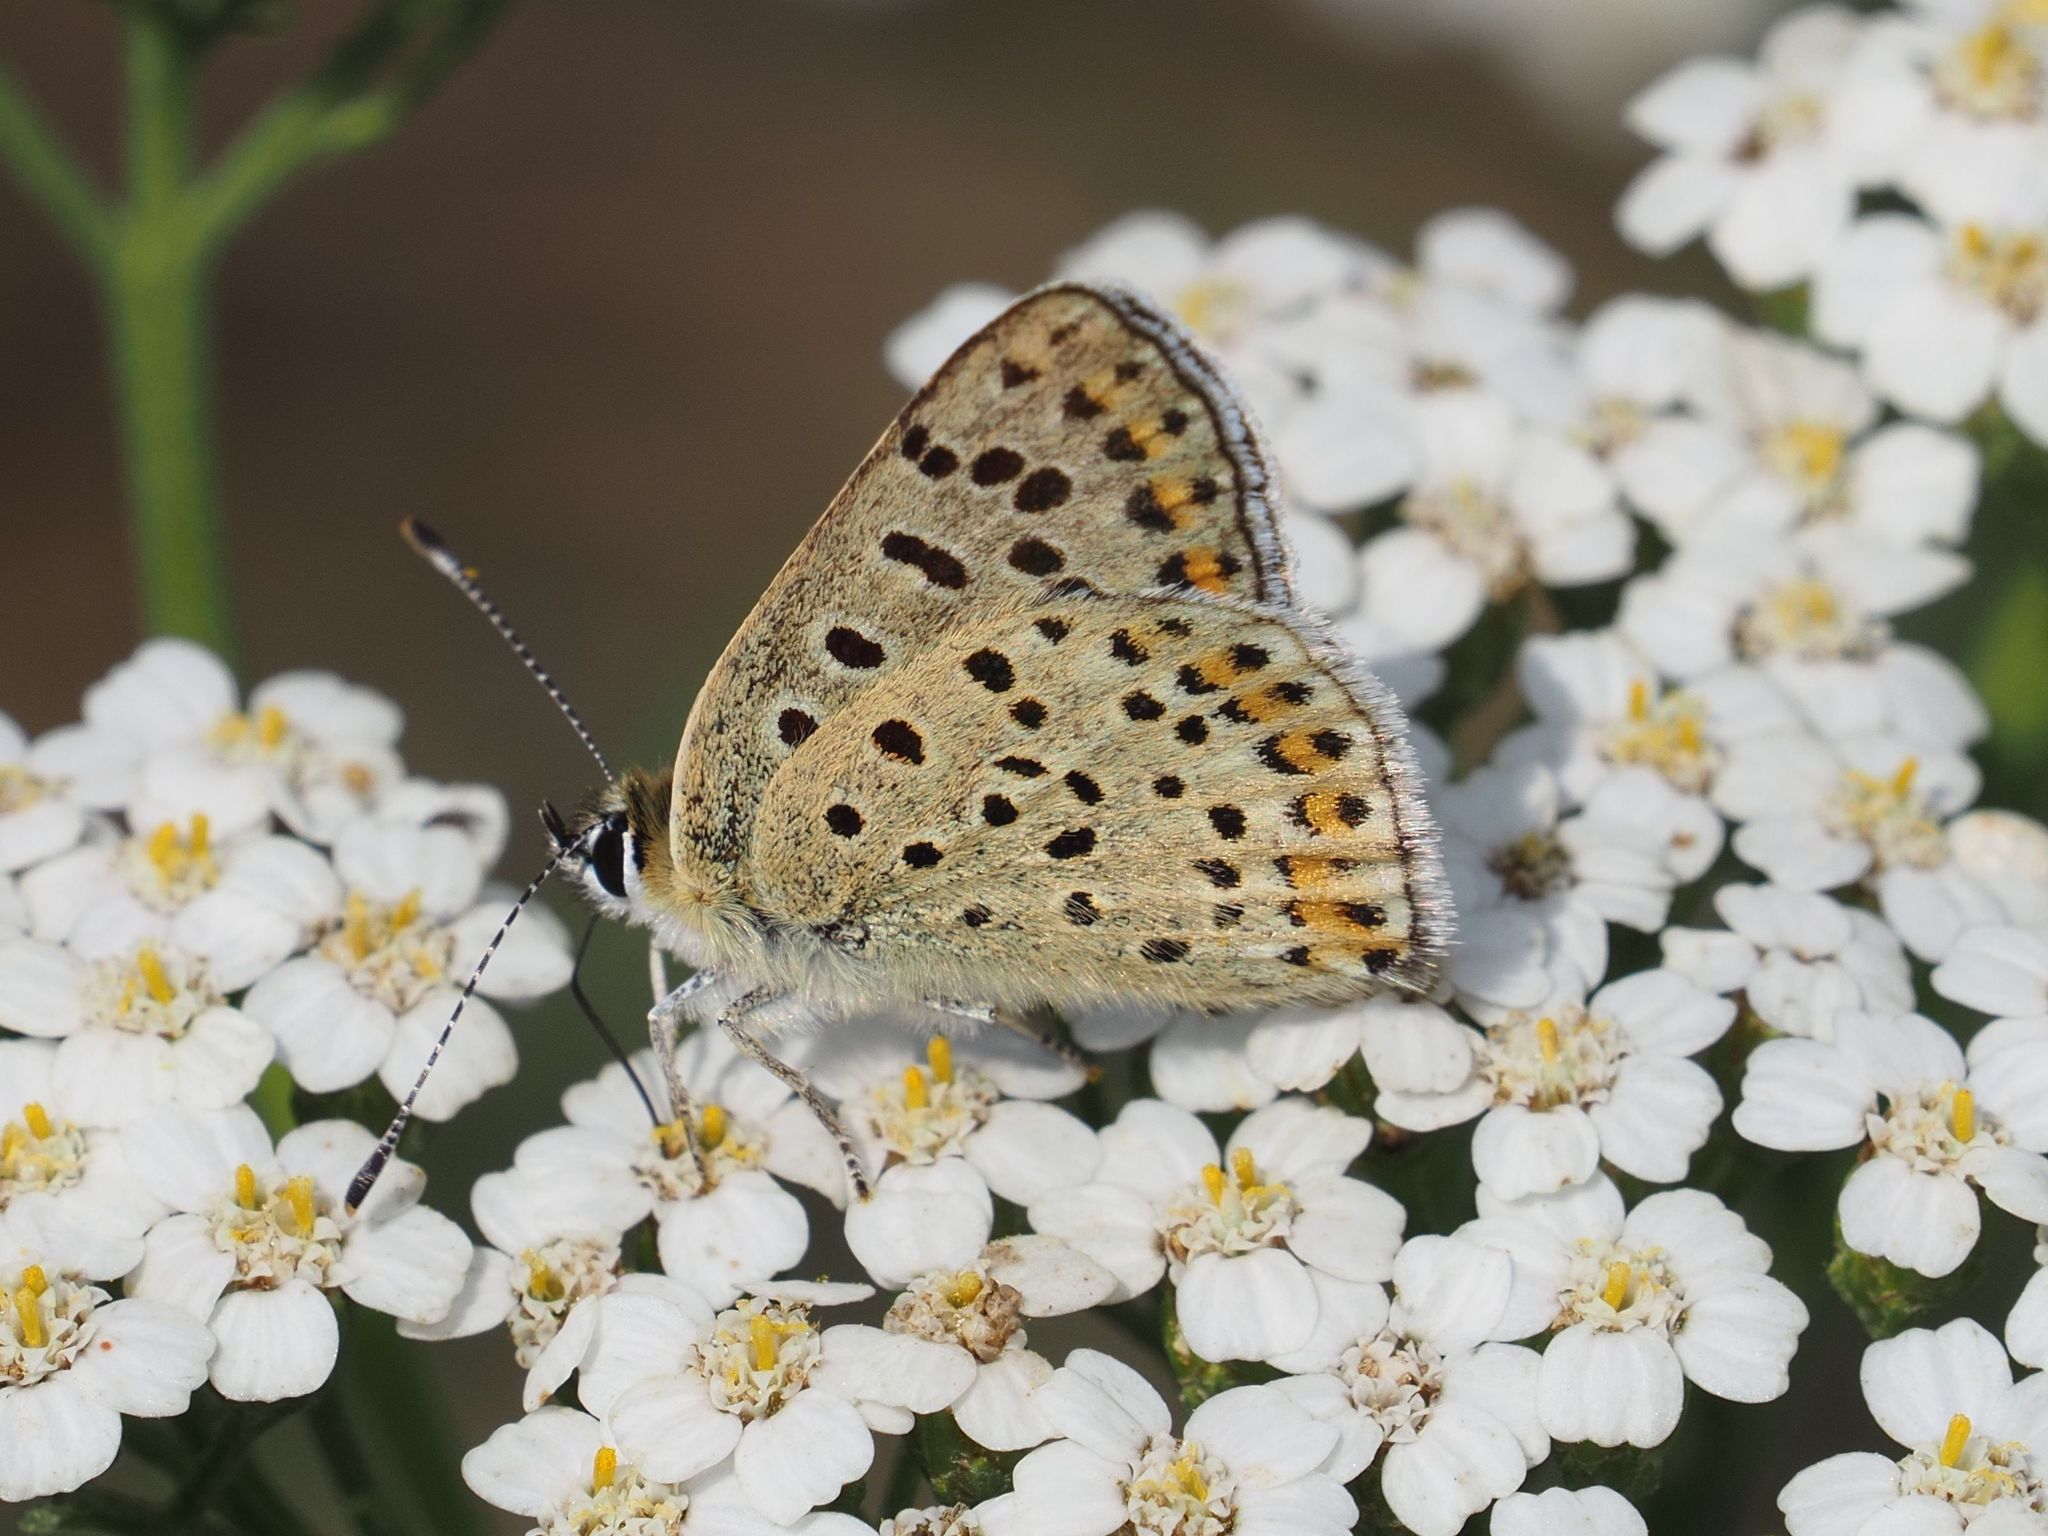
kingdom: Animalia
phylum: Arthropoda
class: Insecta
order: Lepidoptera
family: Lycaenidae
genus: Loweia
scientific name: Loweia tityrus
